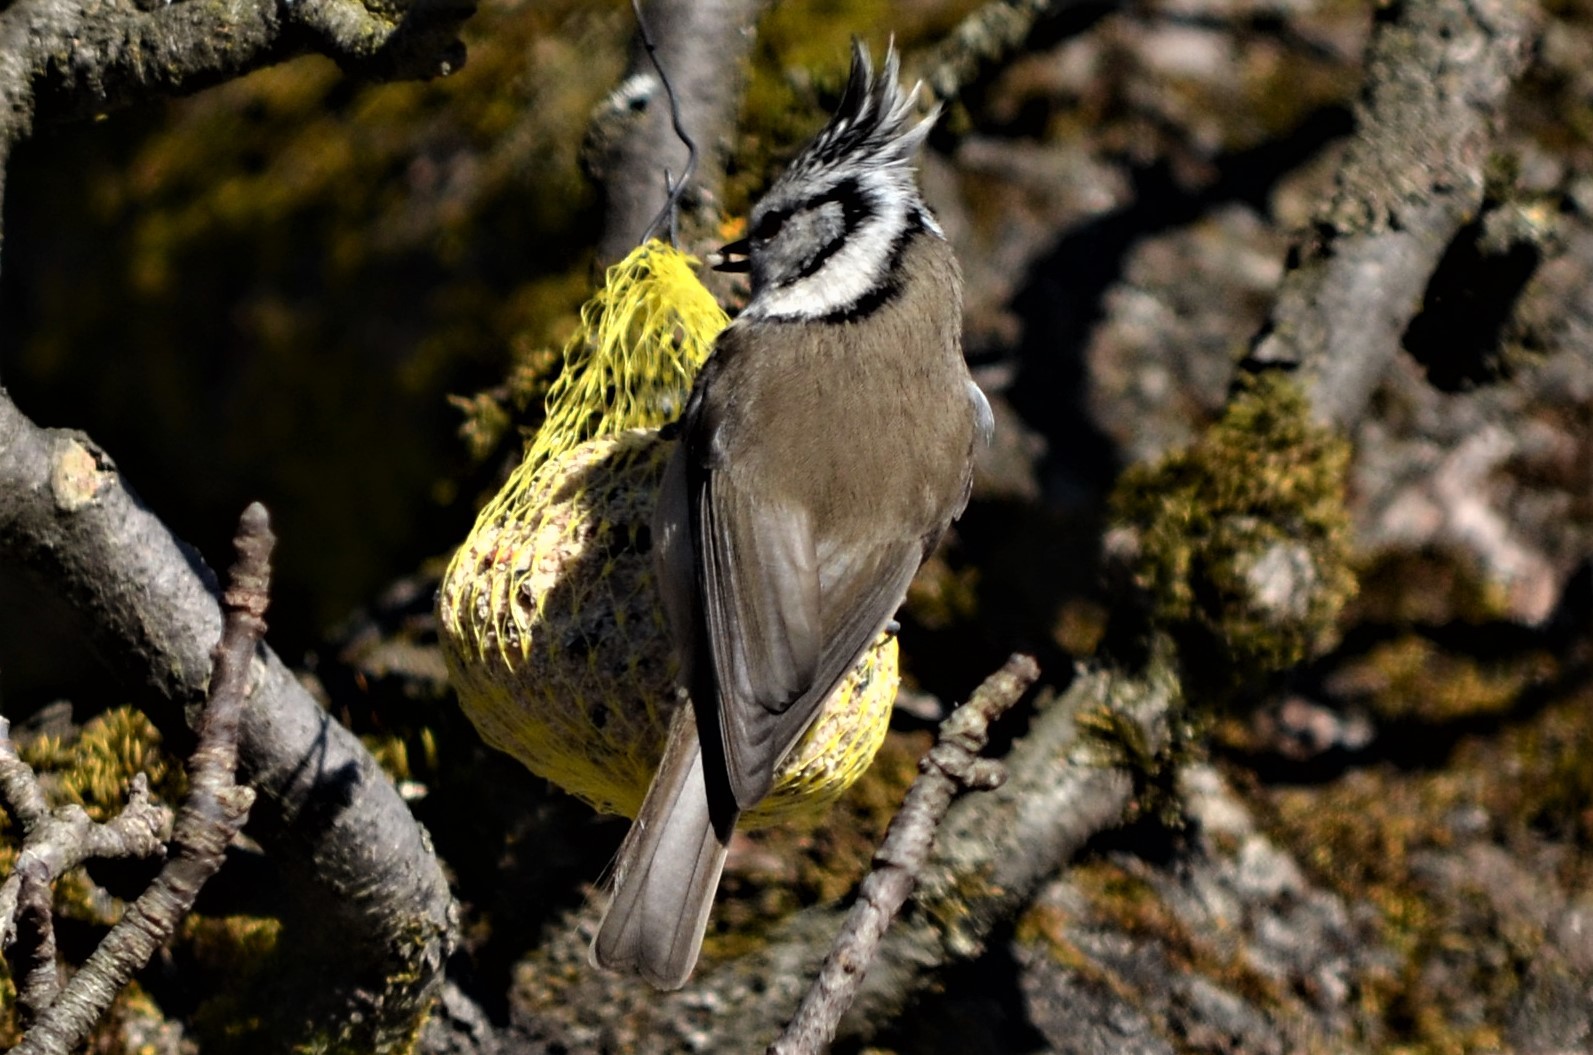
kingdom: Animalia
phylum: Chordata
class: Aves
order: Passeriformes
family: Paridae
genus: Lophophanes
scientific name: Lophophanes cristatus
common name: European crested tit
